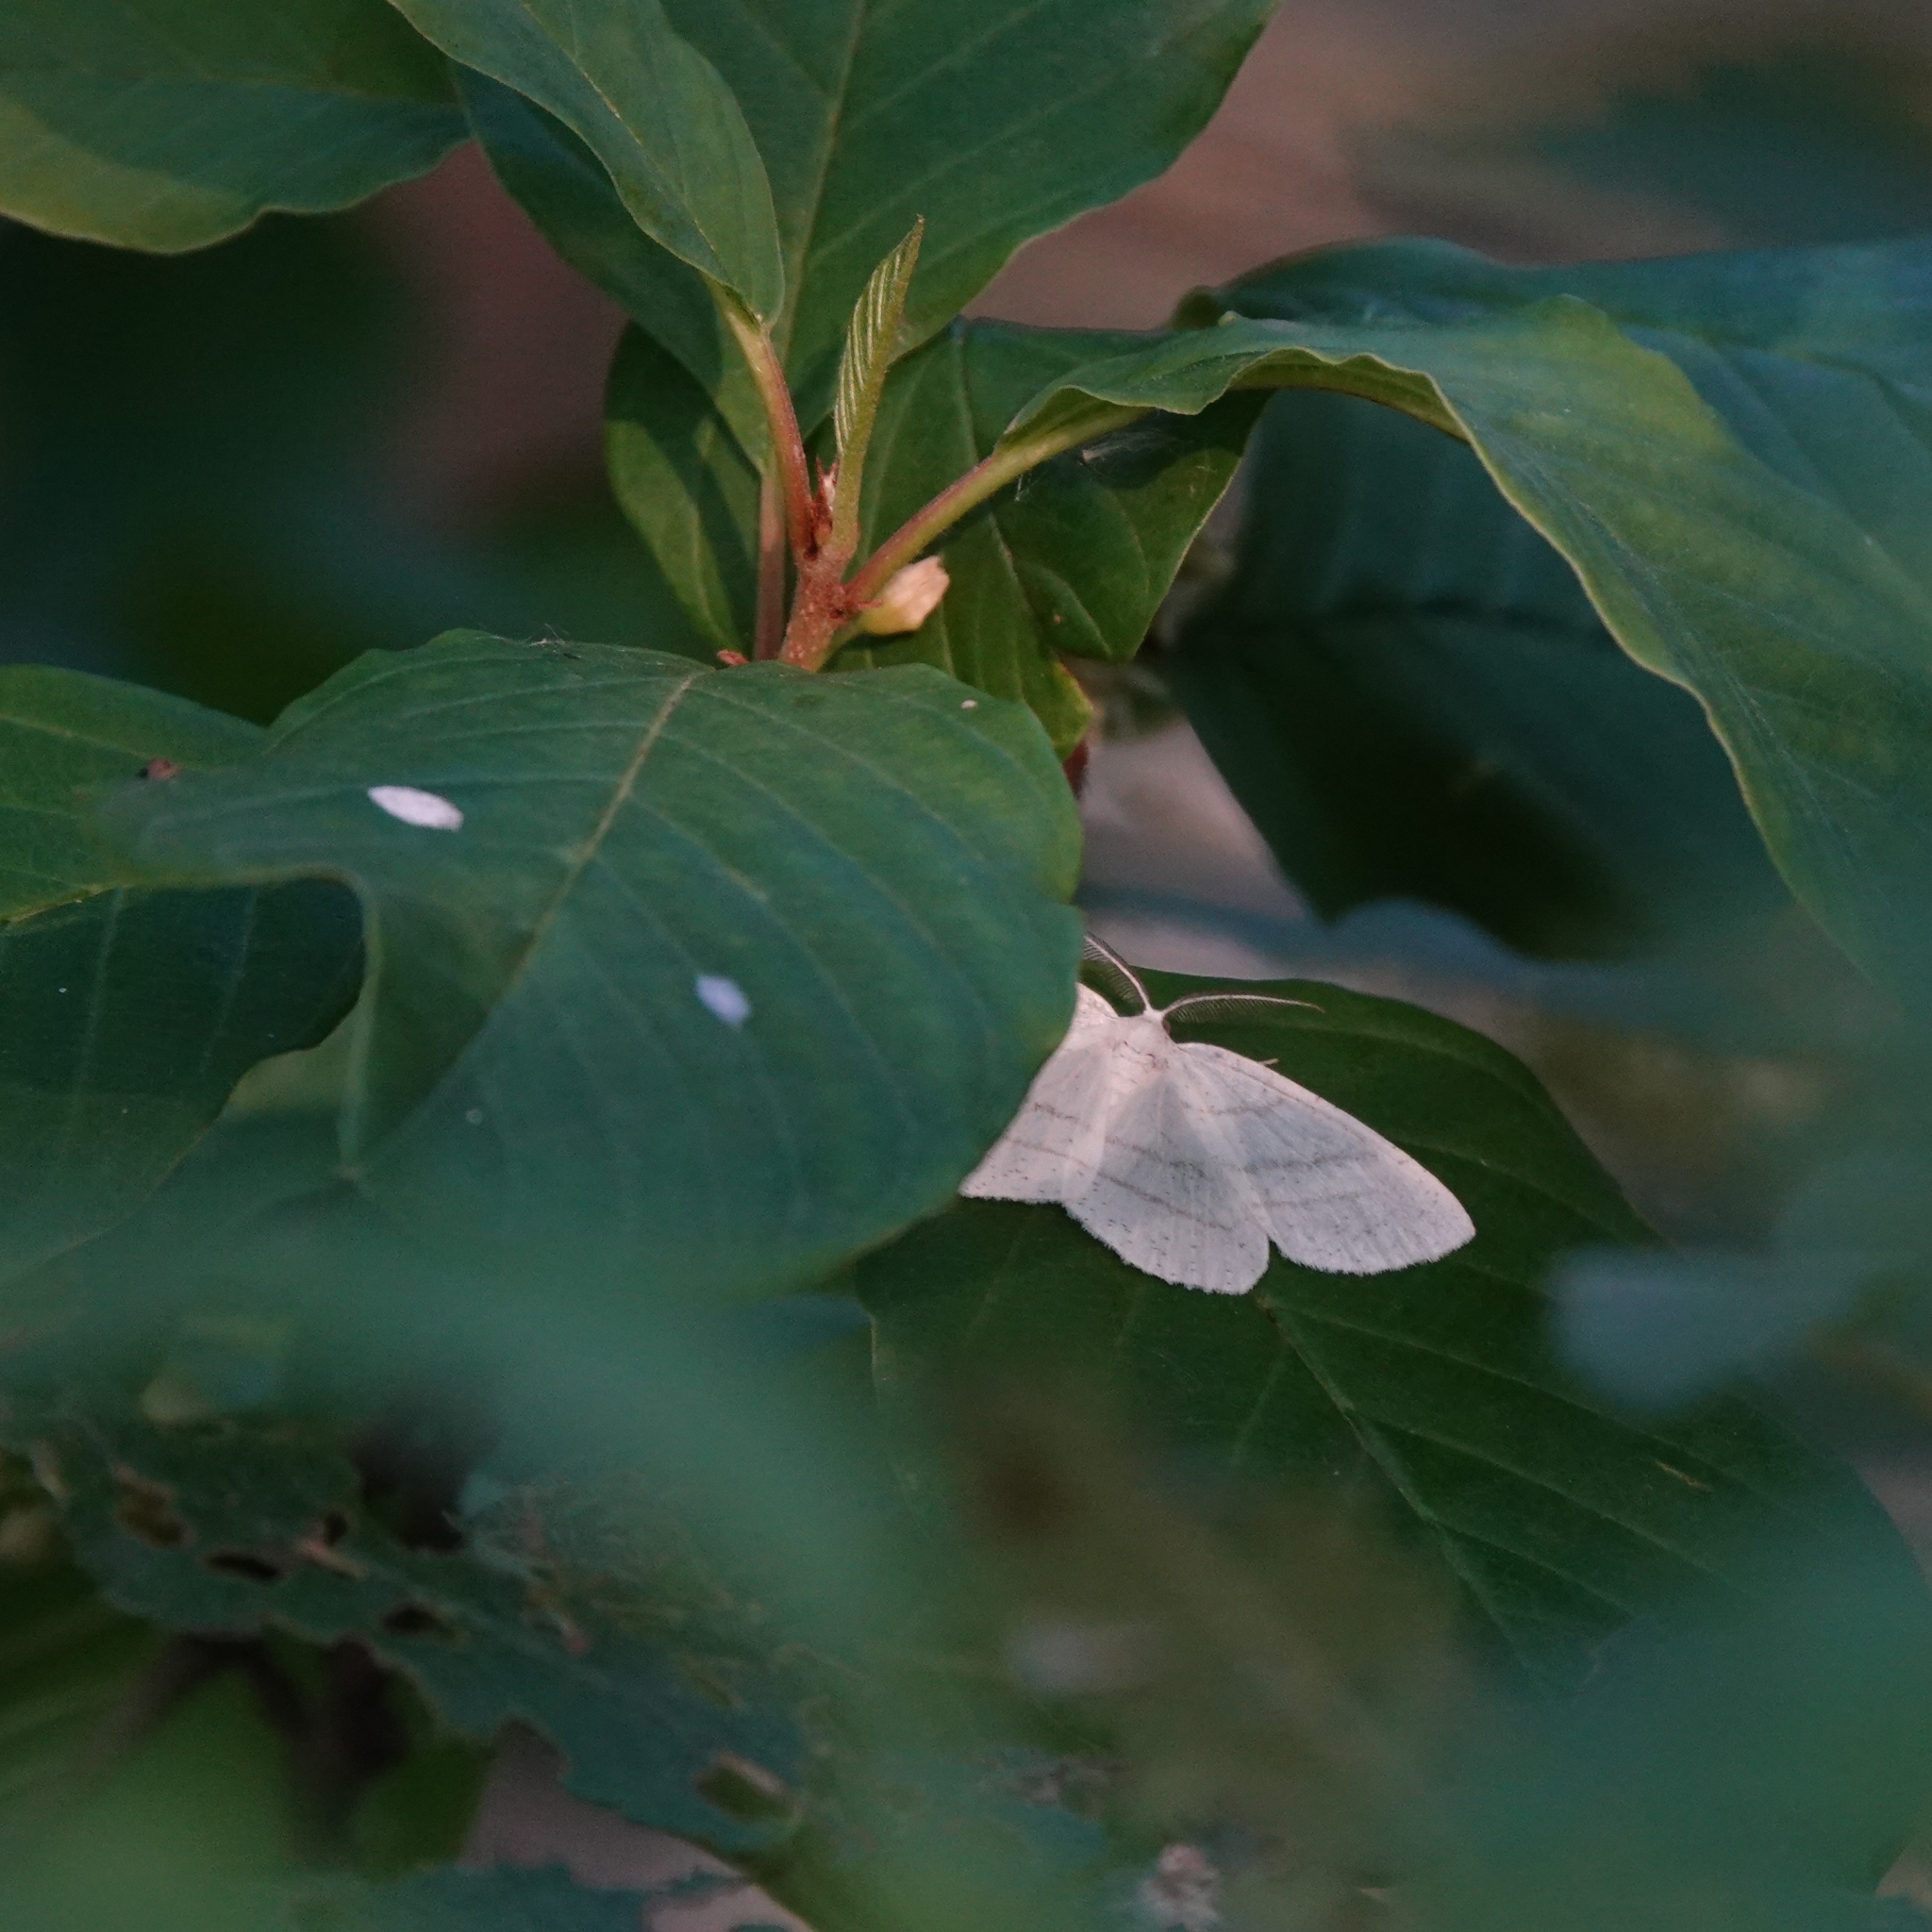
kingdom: Animalia
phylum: Arthropoda
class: Insecta
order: Lepidoptera
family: Geometridae
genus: Cabera
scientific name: Cabera pusaria
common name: Common white wave
